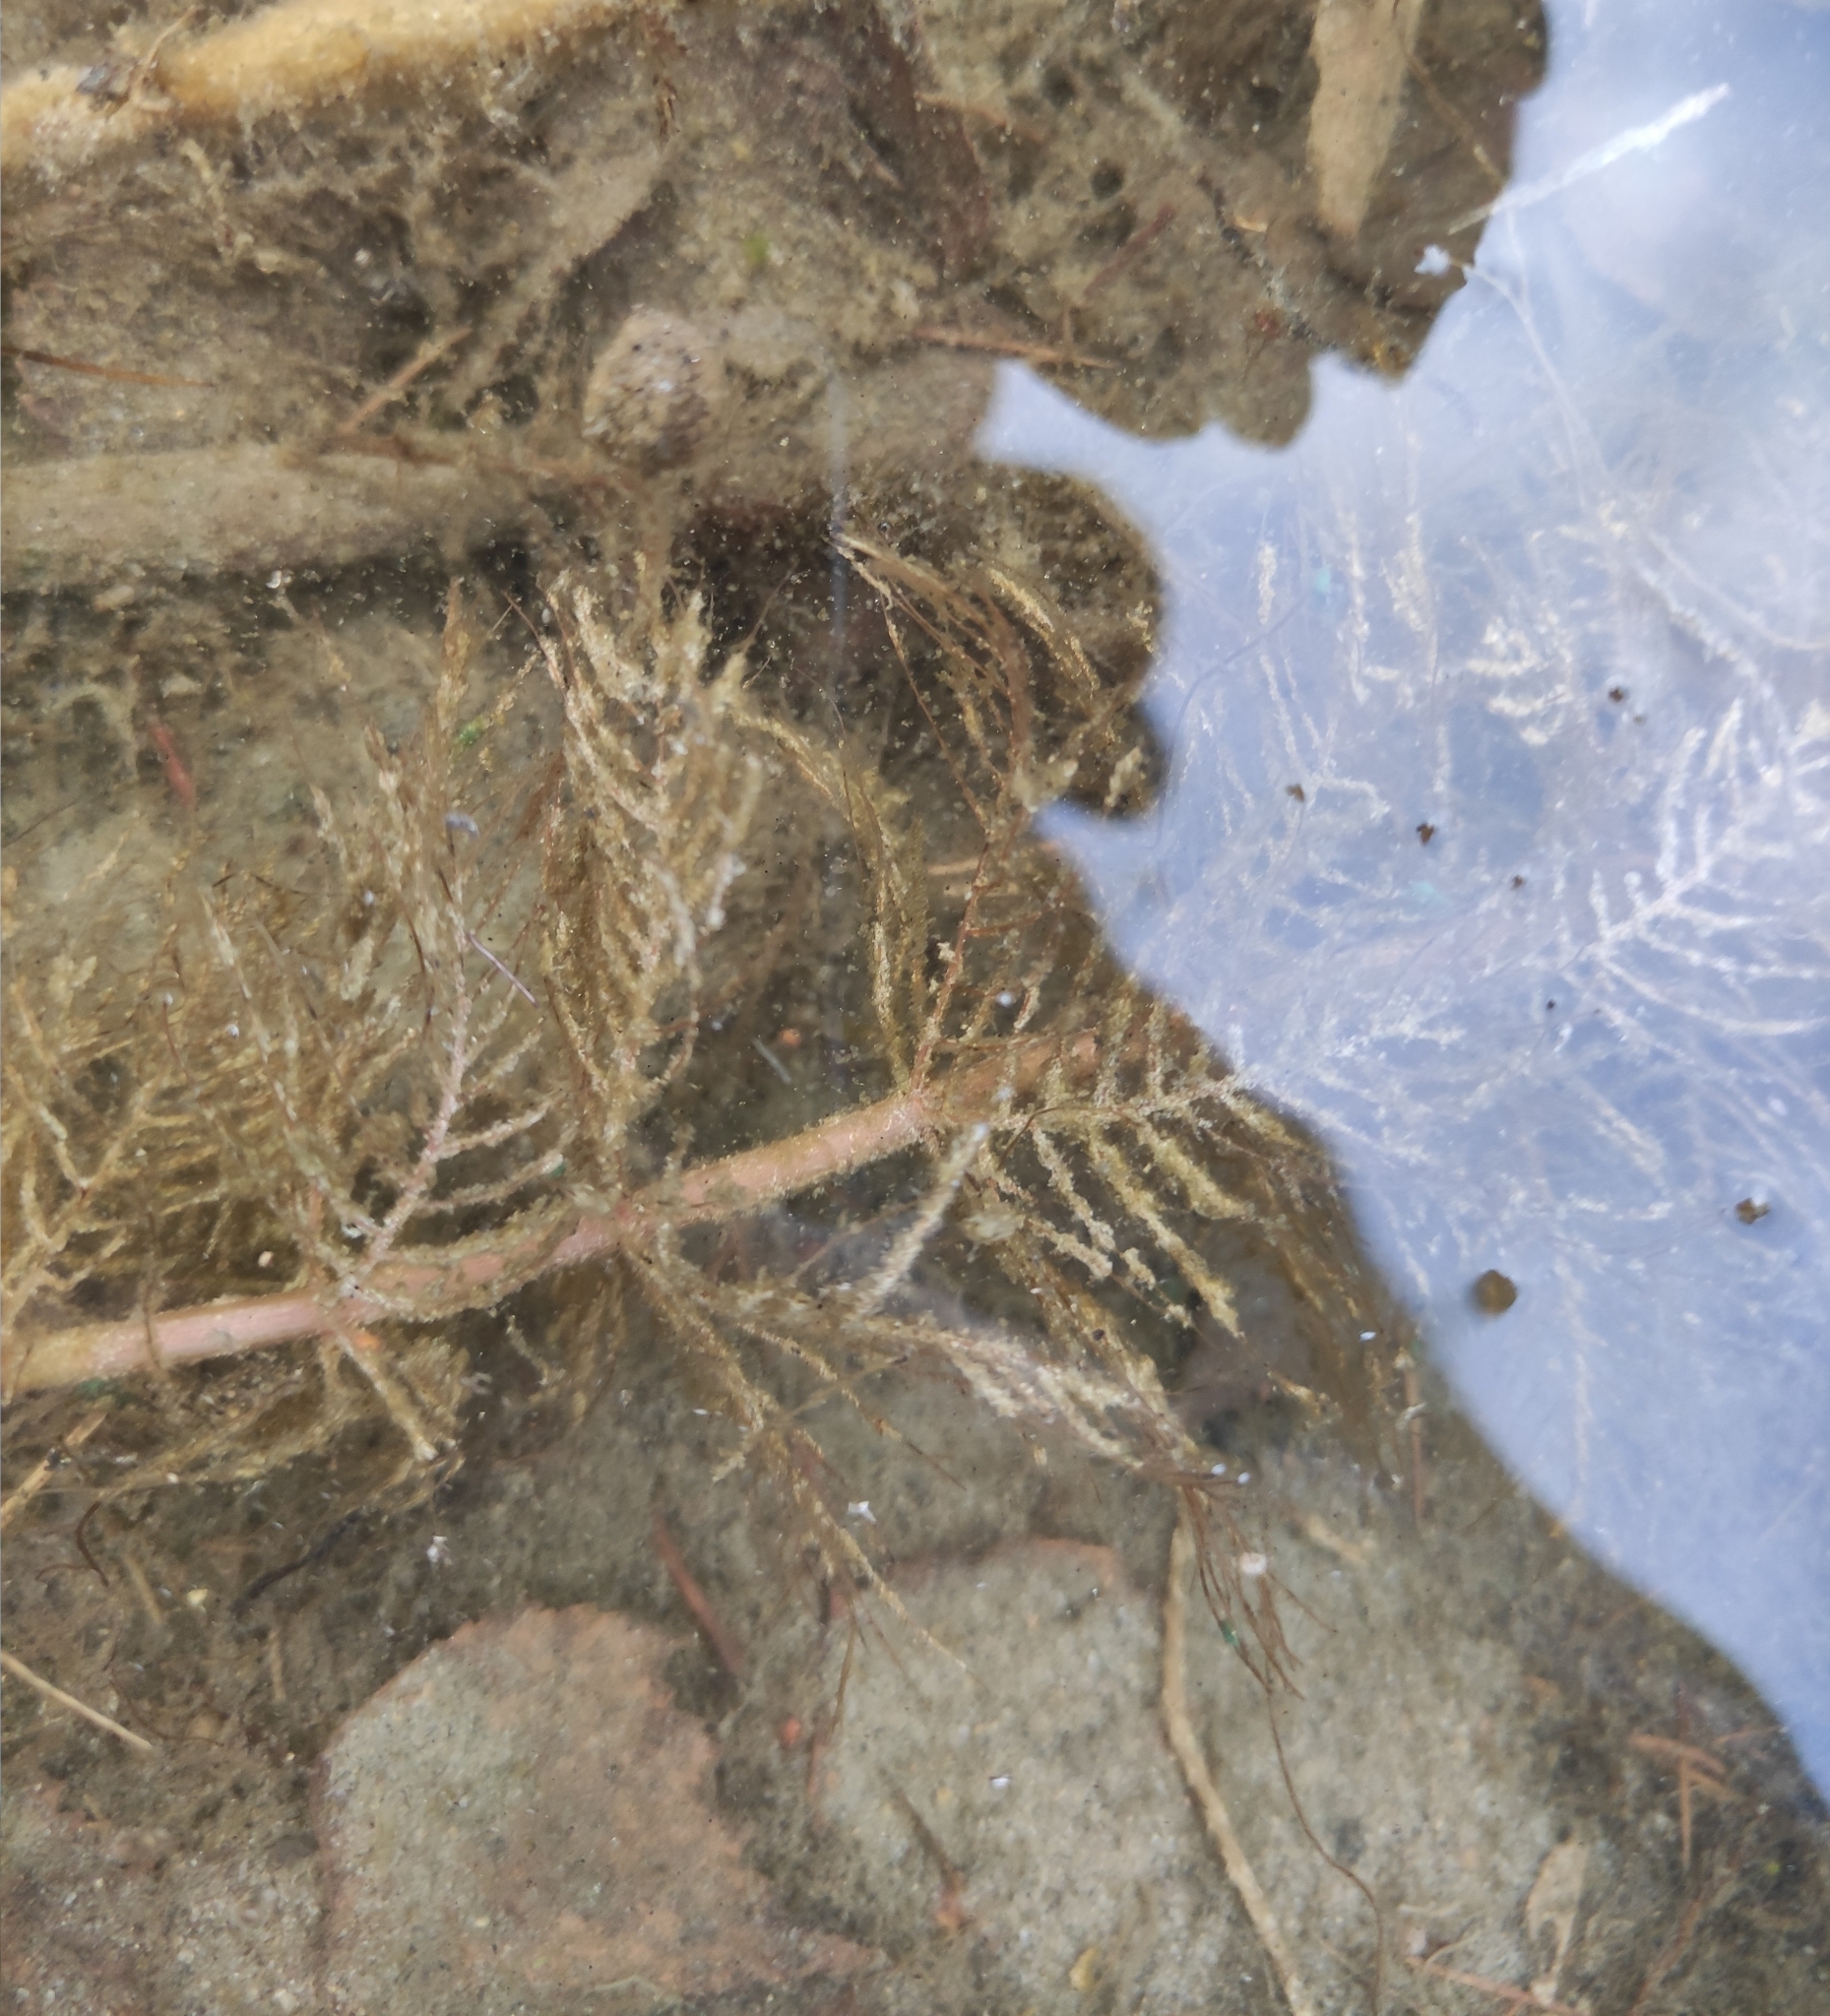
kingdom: Plantae
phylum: Tracheophyta
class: Magnoliopsida
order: Saxifragales
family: Haloragaceae
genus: Myriophyllum
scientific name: Myriophyllum sibiricum
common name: Siberian water-milfoil
